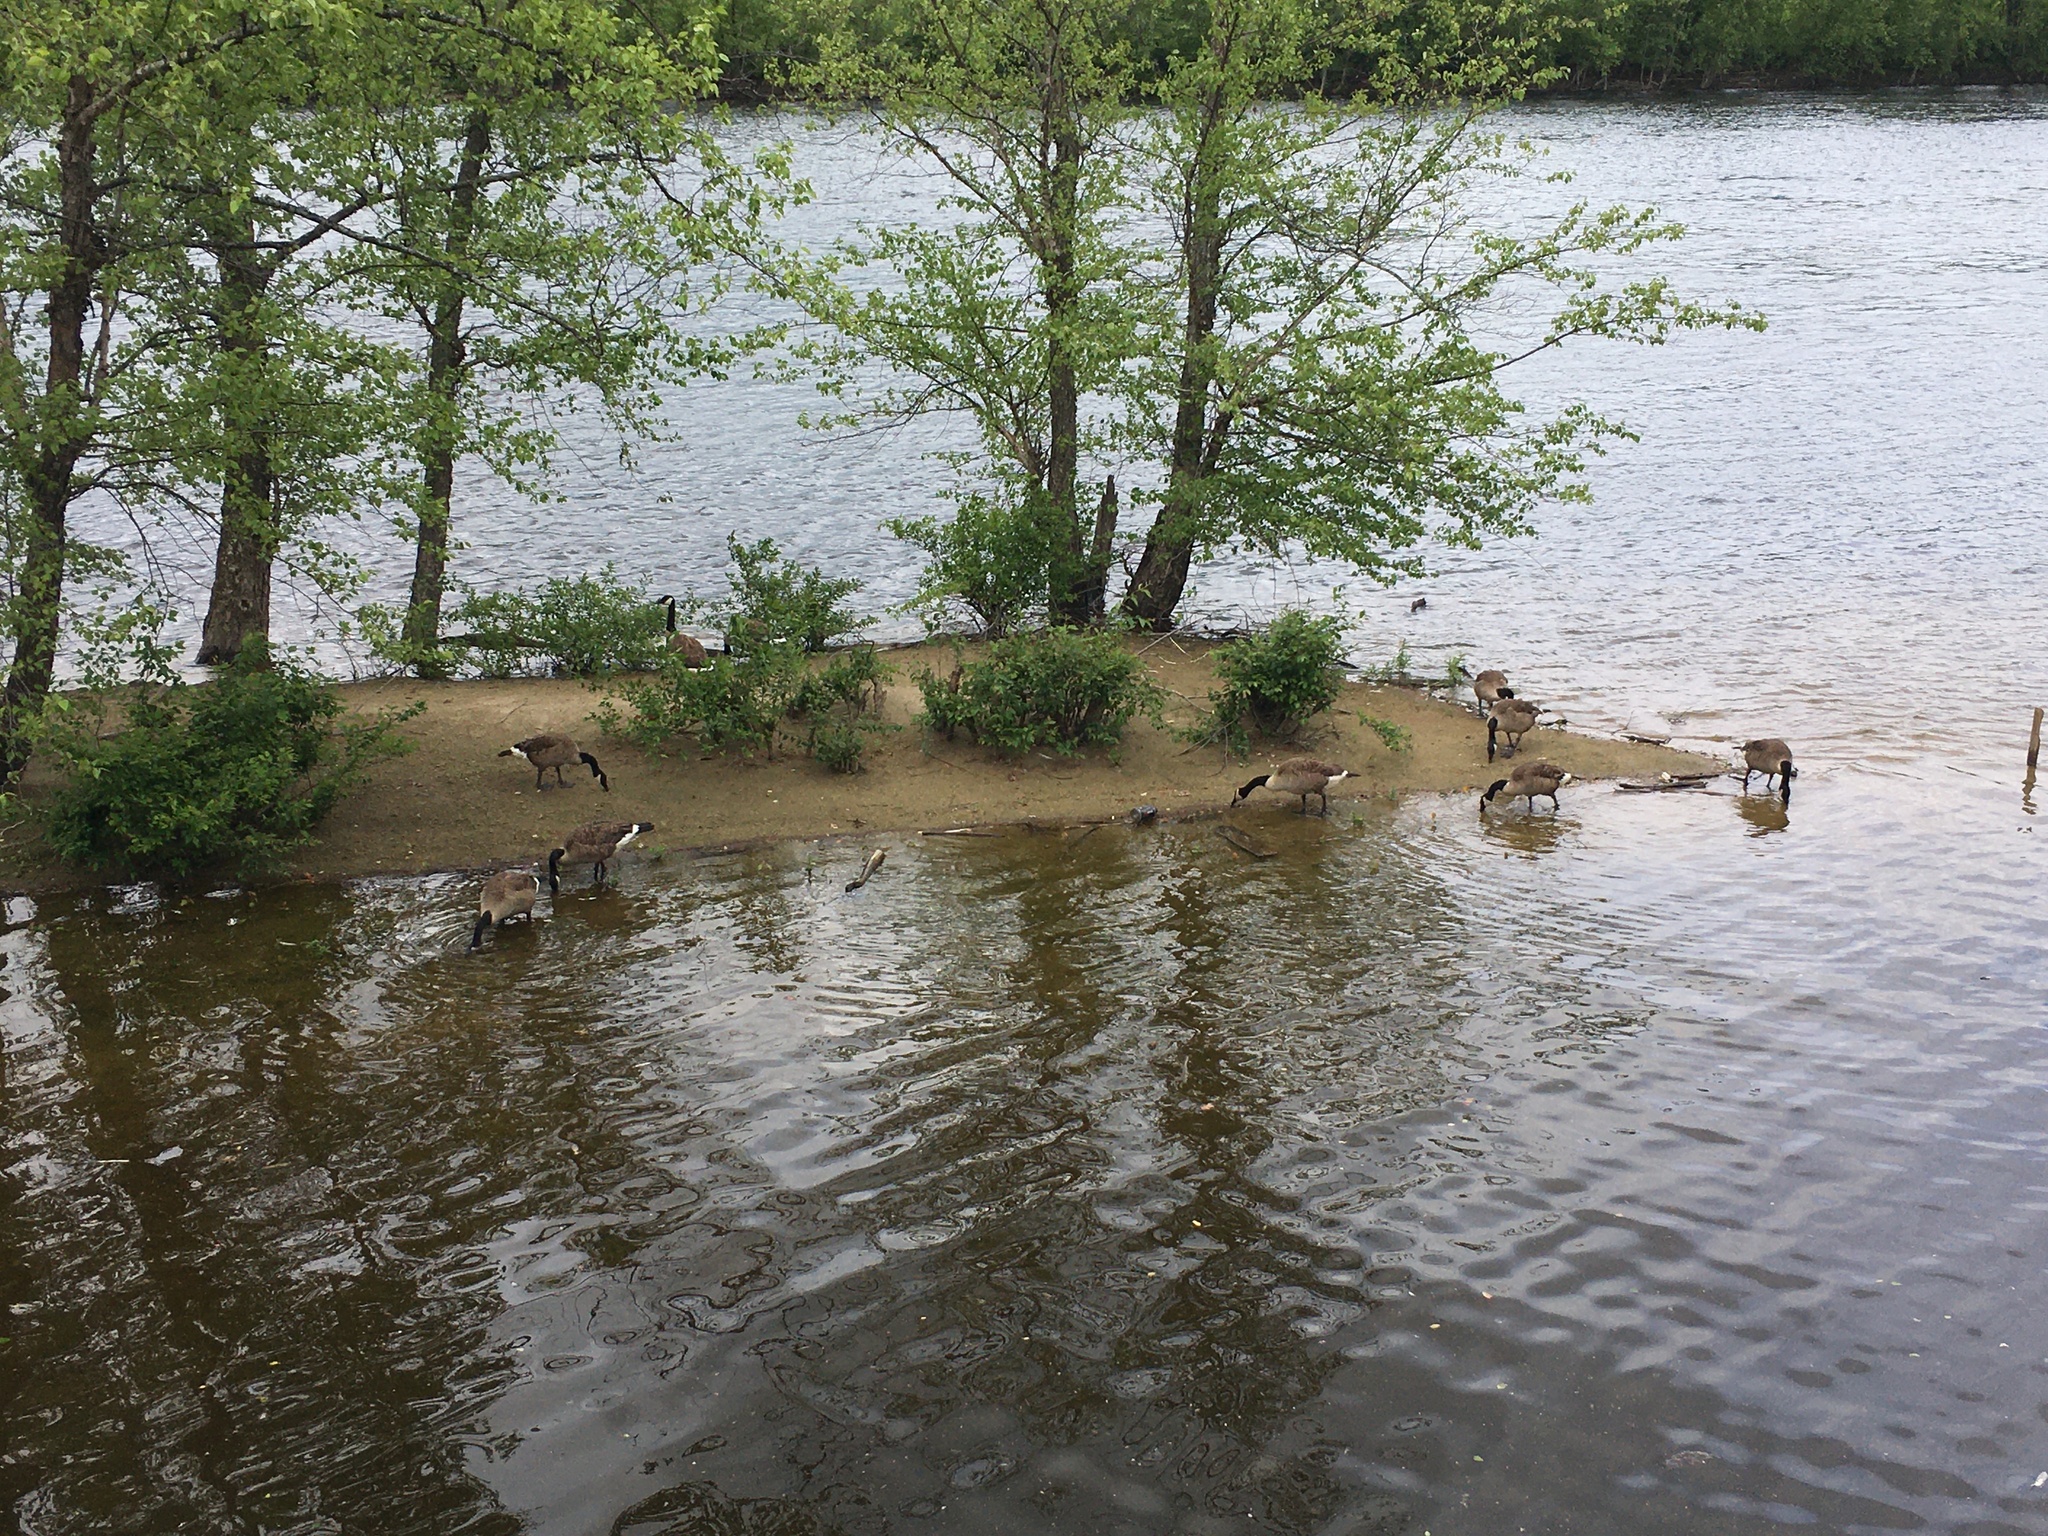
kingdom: Animalia
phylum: Chordata
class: Aves
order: Anseriformes
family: Anatidae
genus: Branta
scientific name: Branta canadensis
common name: Canada goose
